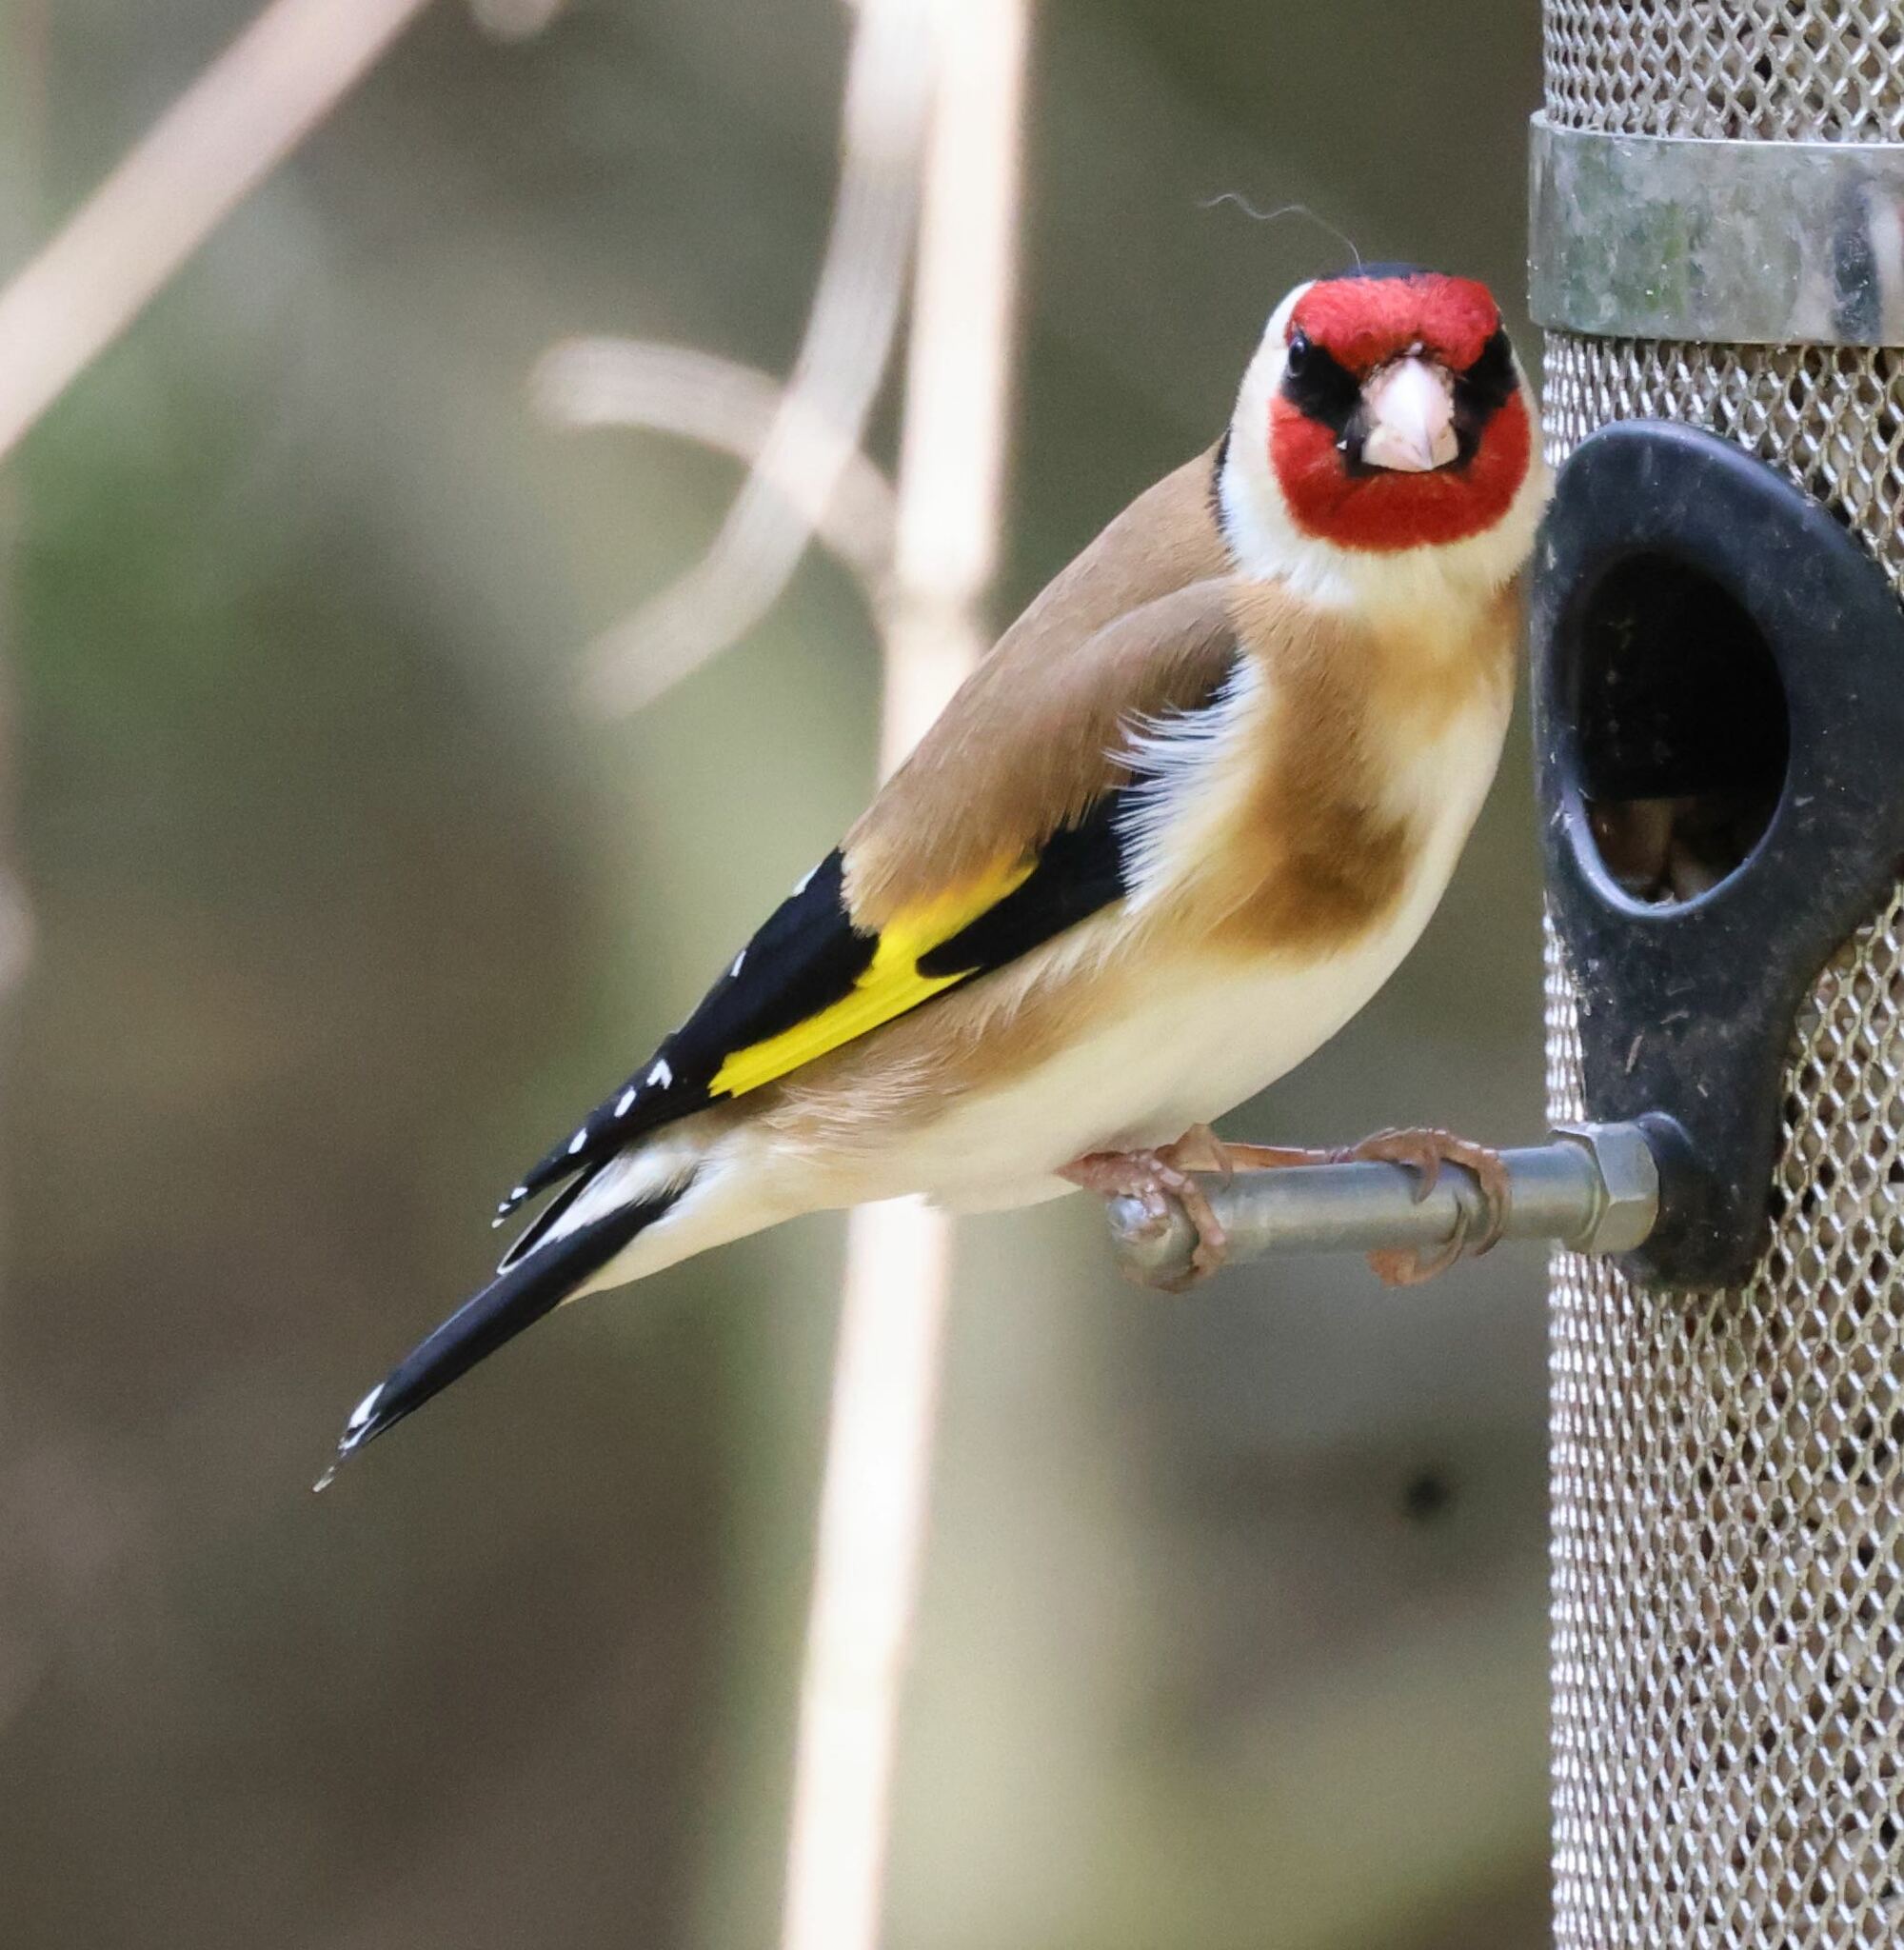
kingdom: Animalia
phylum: Chordata
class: Aves
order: Passeriformes
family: Fringillidae
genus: Carduelis
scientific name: Carduelis carduelis
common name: European goldfinch
